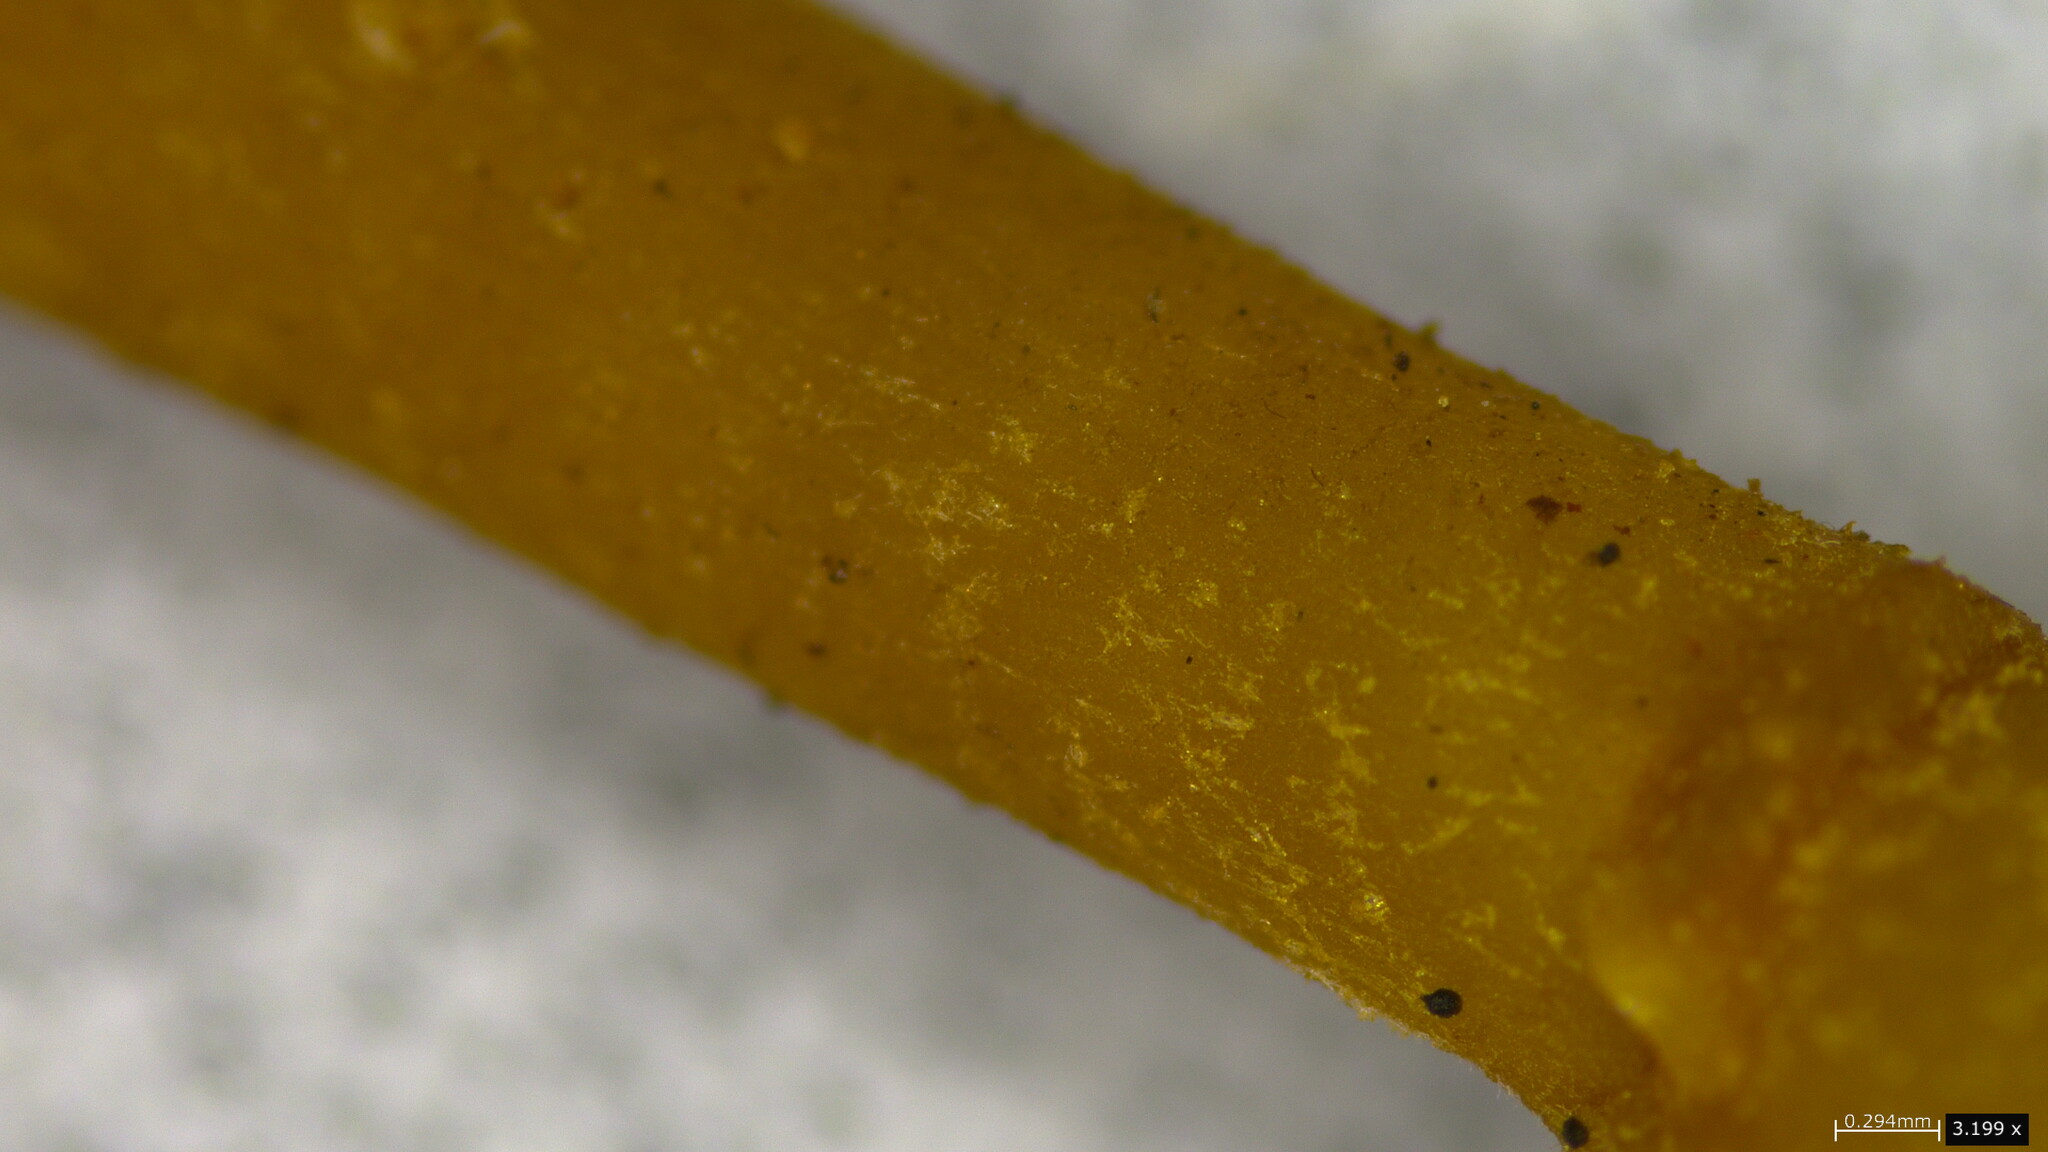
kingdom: Fungi
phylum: Basidiomycota
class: Agaricomycetes
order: Agaricales
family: Callistosporiaceae
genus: Callistosporium
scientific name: Callistosporium luteo-olivaceum
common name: Olive lute
